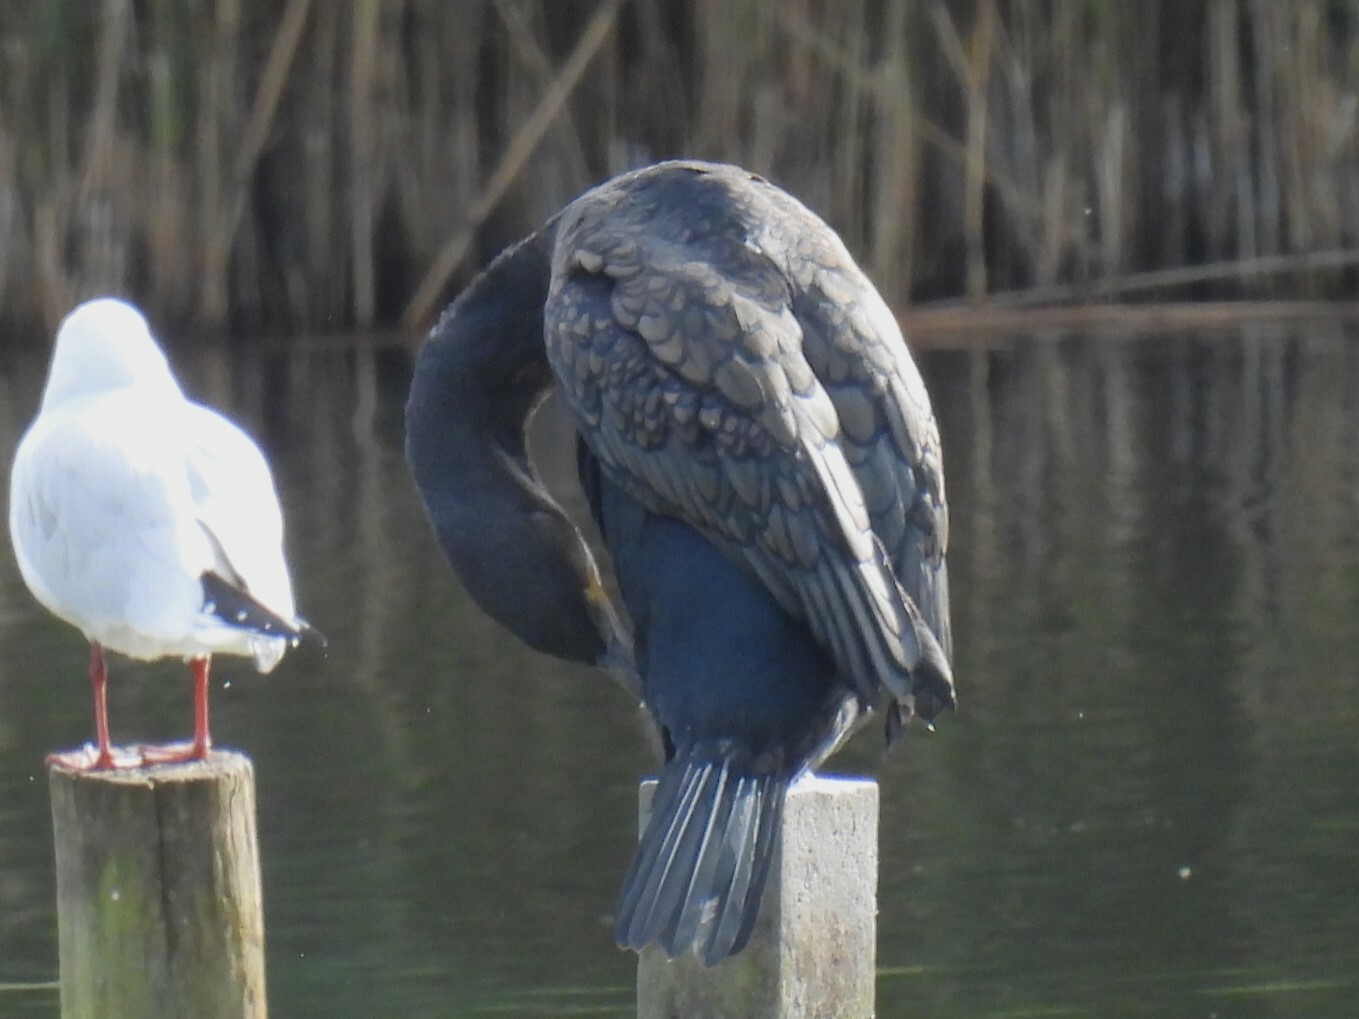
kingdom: Animalia
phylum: Chordata
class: Aves
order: Suliformes
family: Phalacrocoracidae
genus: Phalacrocorax
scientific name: Phalacrocorax carbo
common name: Great cormorant
